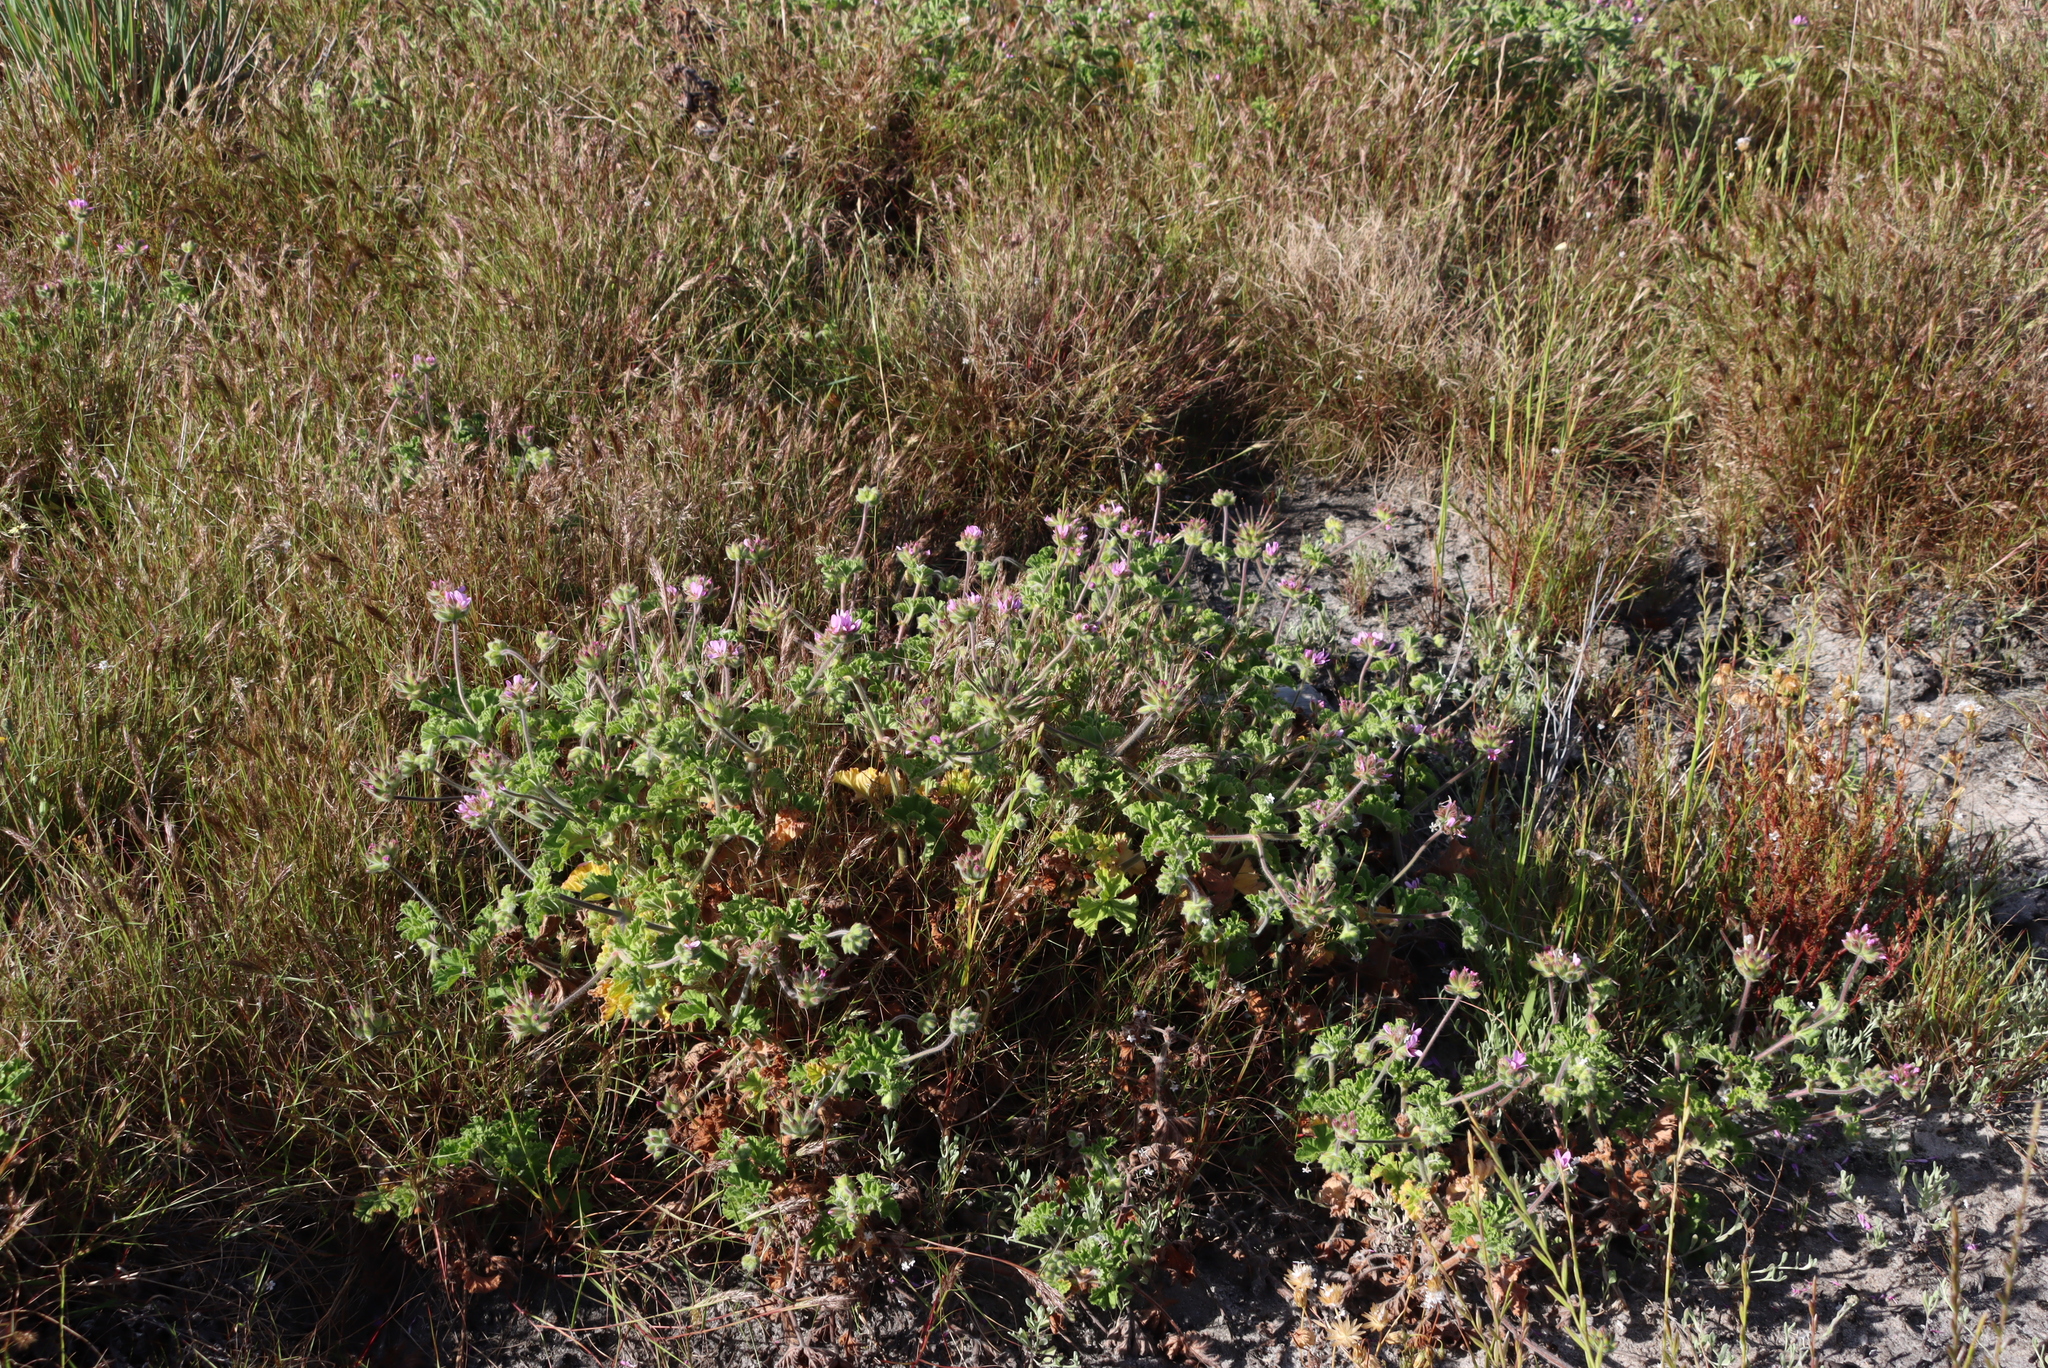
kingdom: Plantae
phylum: Tracheophyta
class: Magnoliopsida
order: Geraniales
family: Geraniaceae
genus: Pelargonium
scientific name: Pelargonium capitatum
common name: Rose scented geranium
